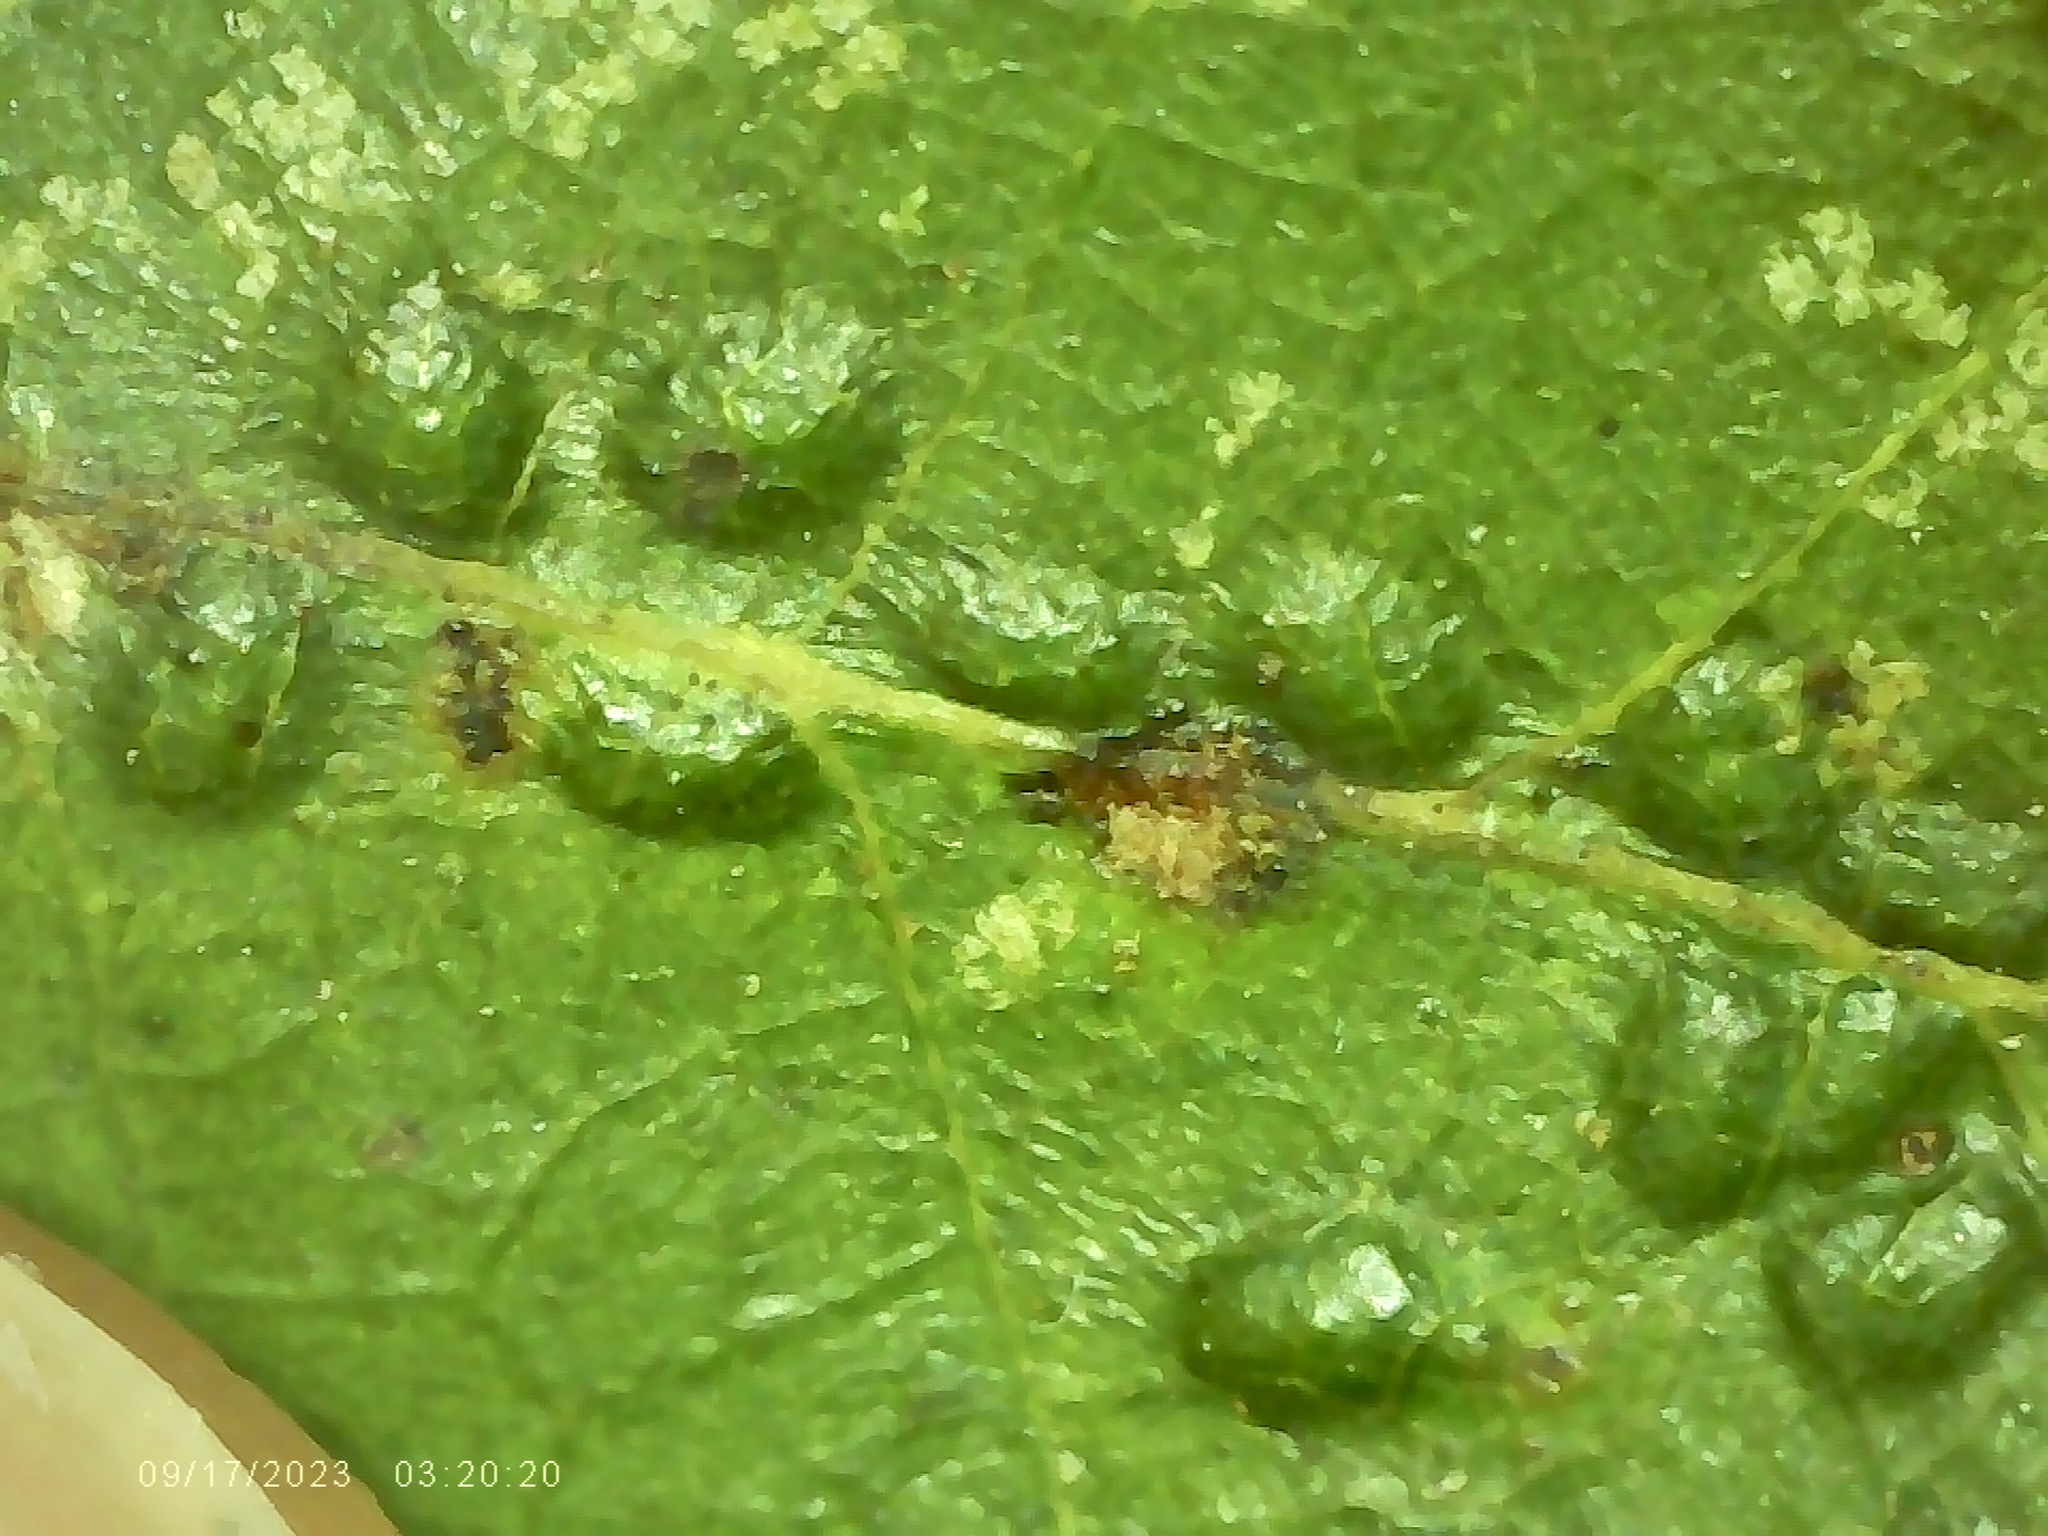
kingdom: Animalia
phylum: Arthropoda
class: Insecta
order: Hymenoptera
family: Cynipidae
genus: Neuroterus
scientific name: Neuroterus niger
